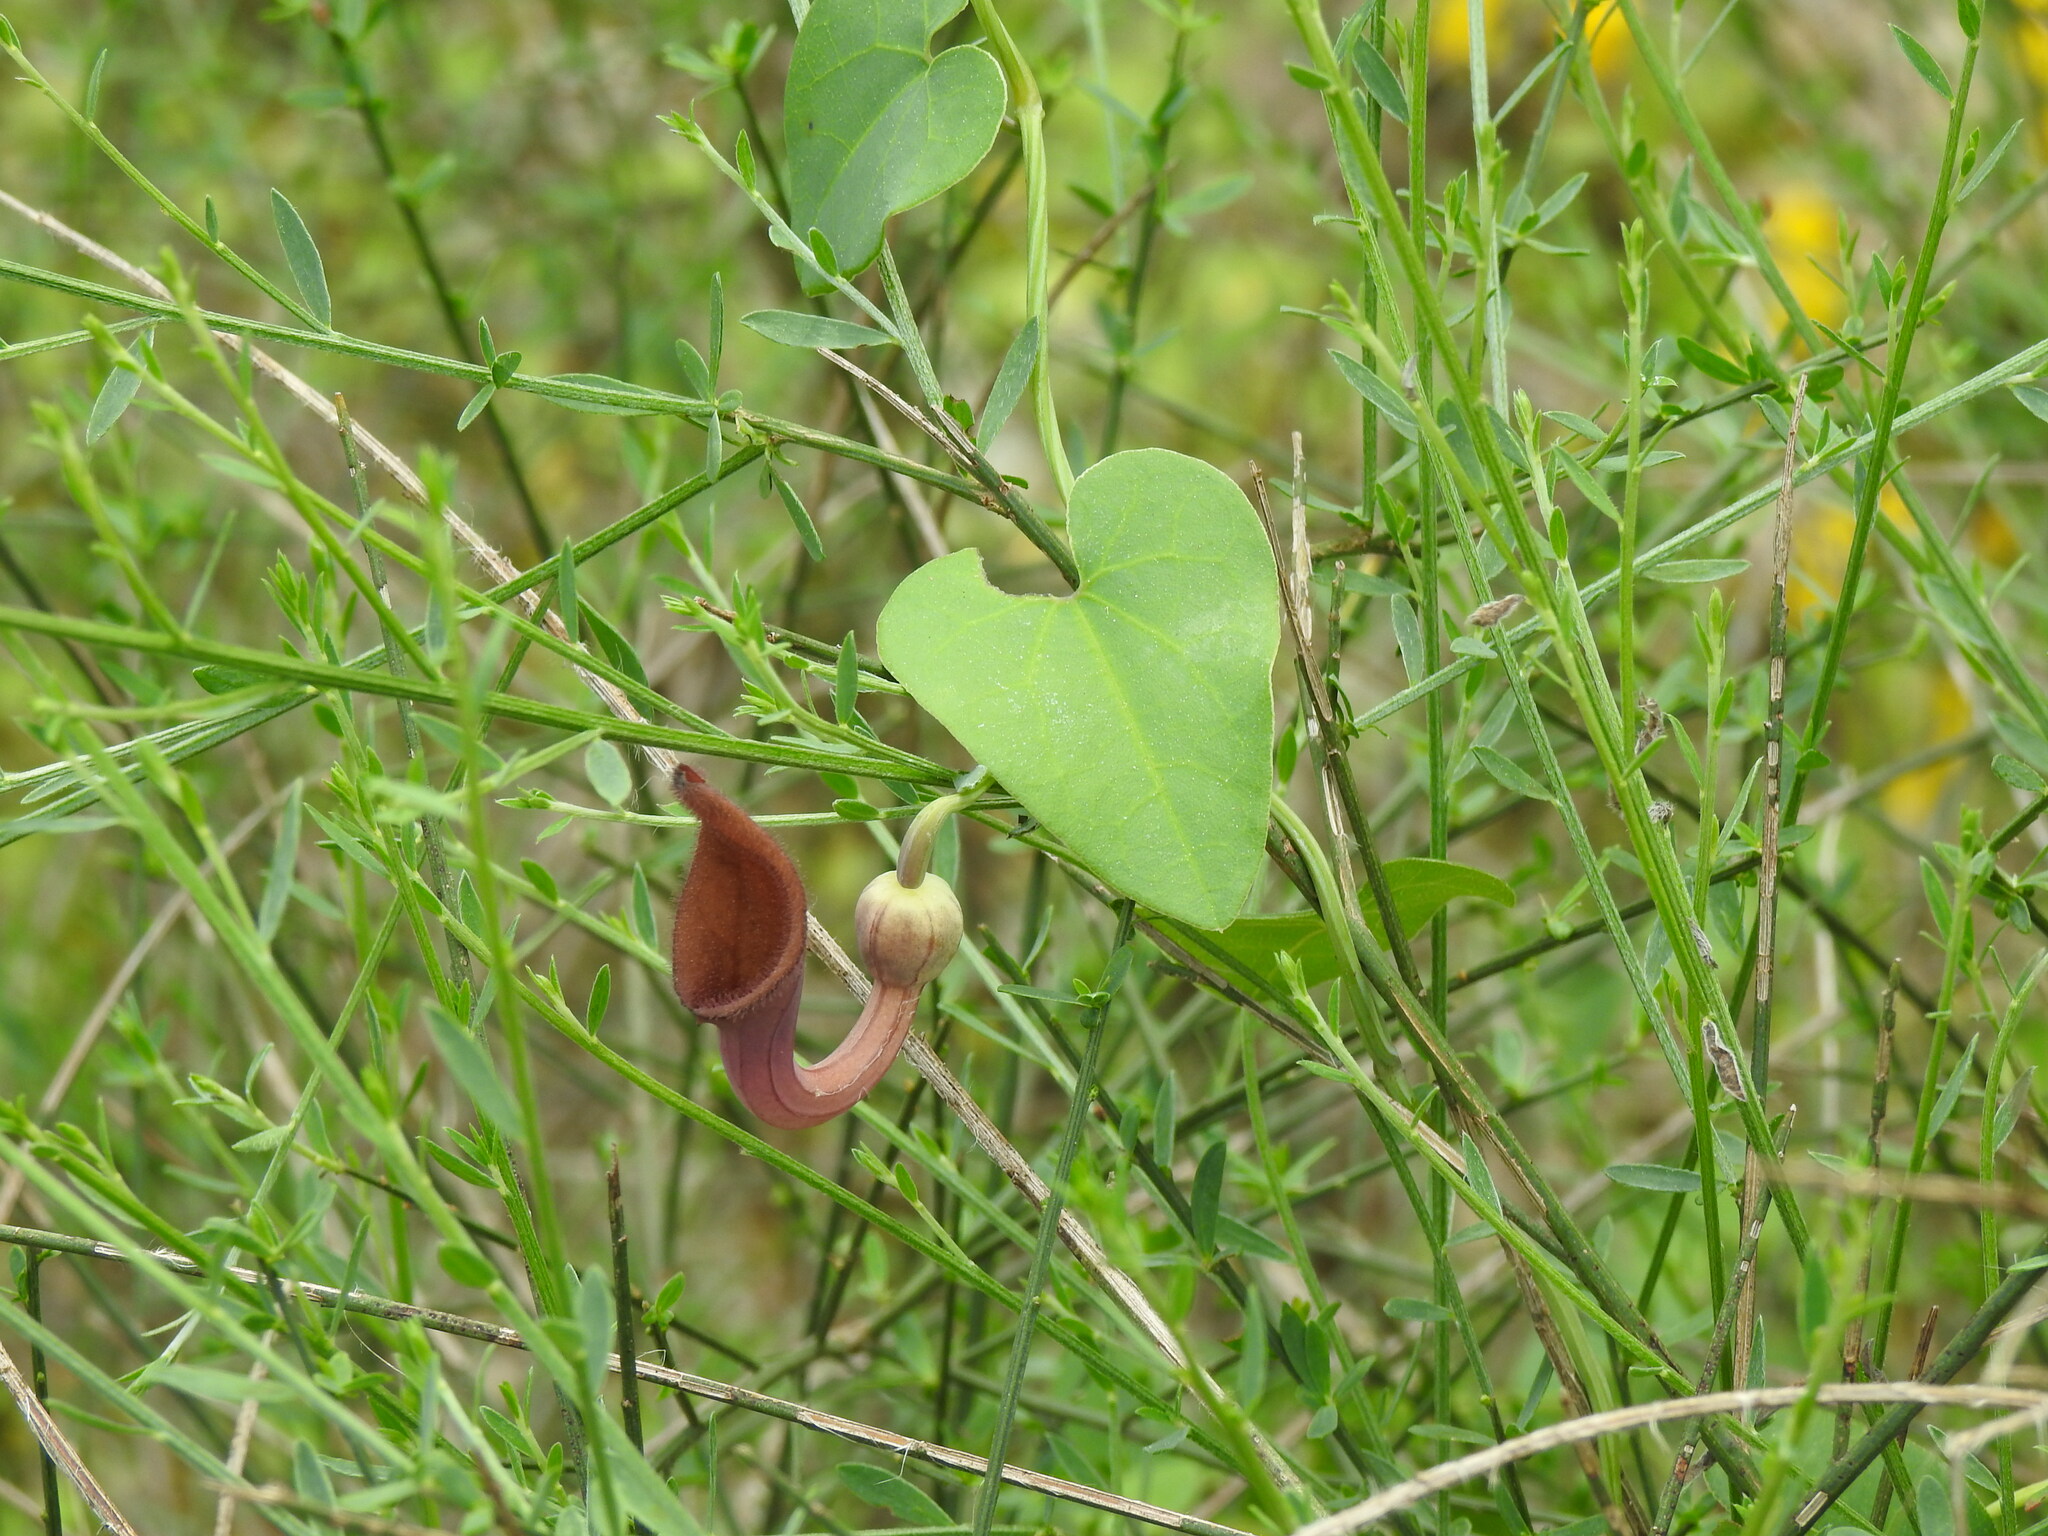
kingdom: Plantae
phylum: Tracheophyta
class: Magnoliopsida
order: Piperales
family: Aristolochiaceae
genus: Aristolochia
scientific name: Aristolochia baetica
